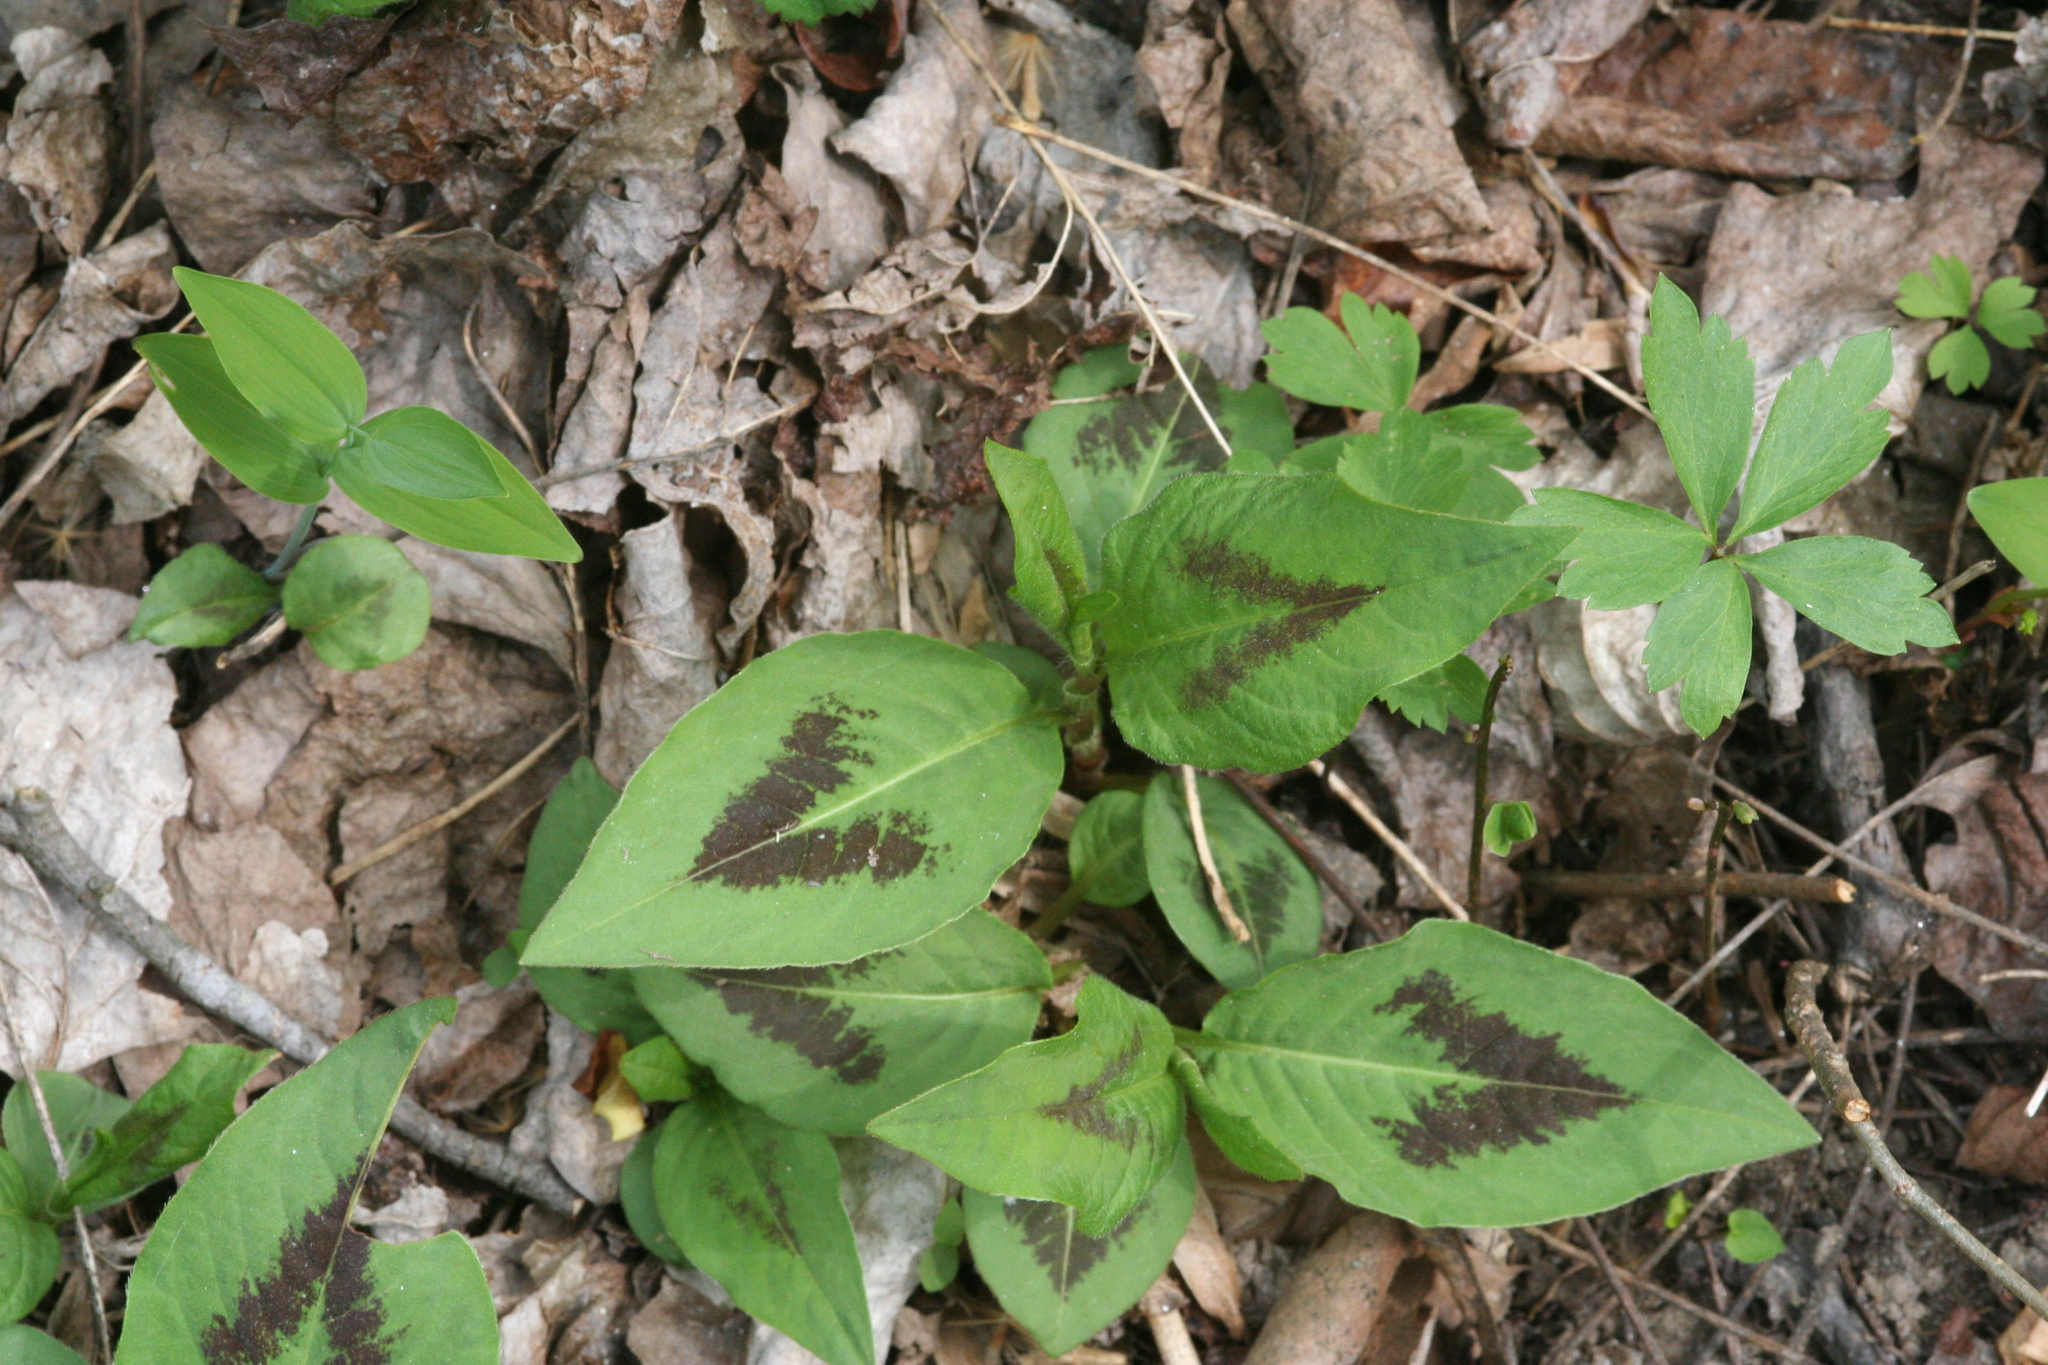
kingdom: Plantae
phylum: Tracheophyta
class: Magnoliopsida
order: Caryophyllales
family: Polygonaceae
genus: Persicaria
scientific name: Persicaria virginiana
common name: Jumpseed
